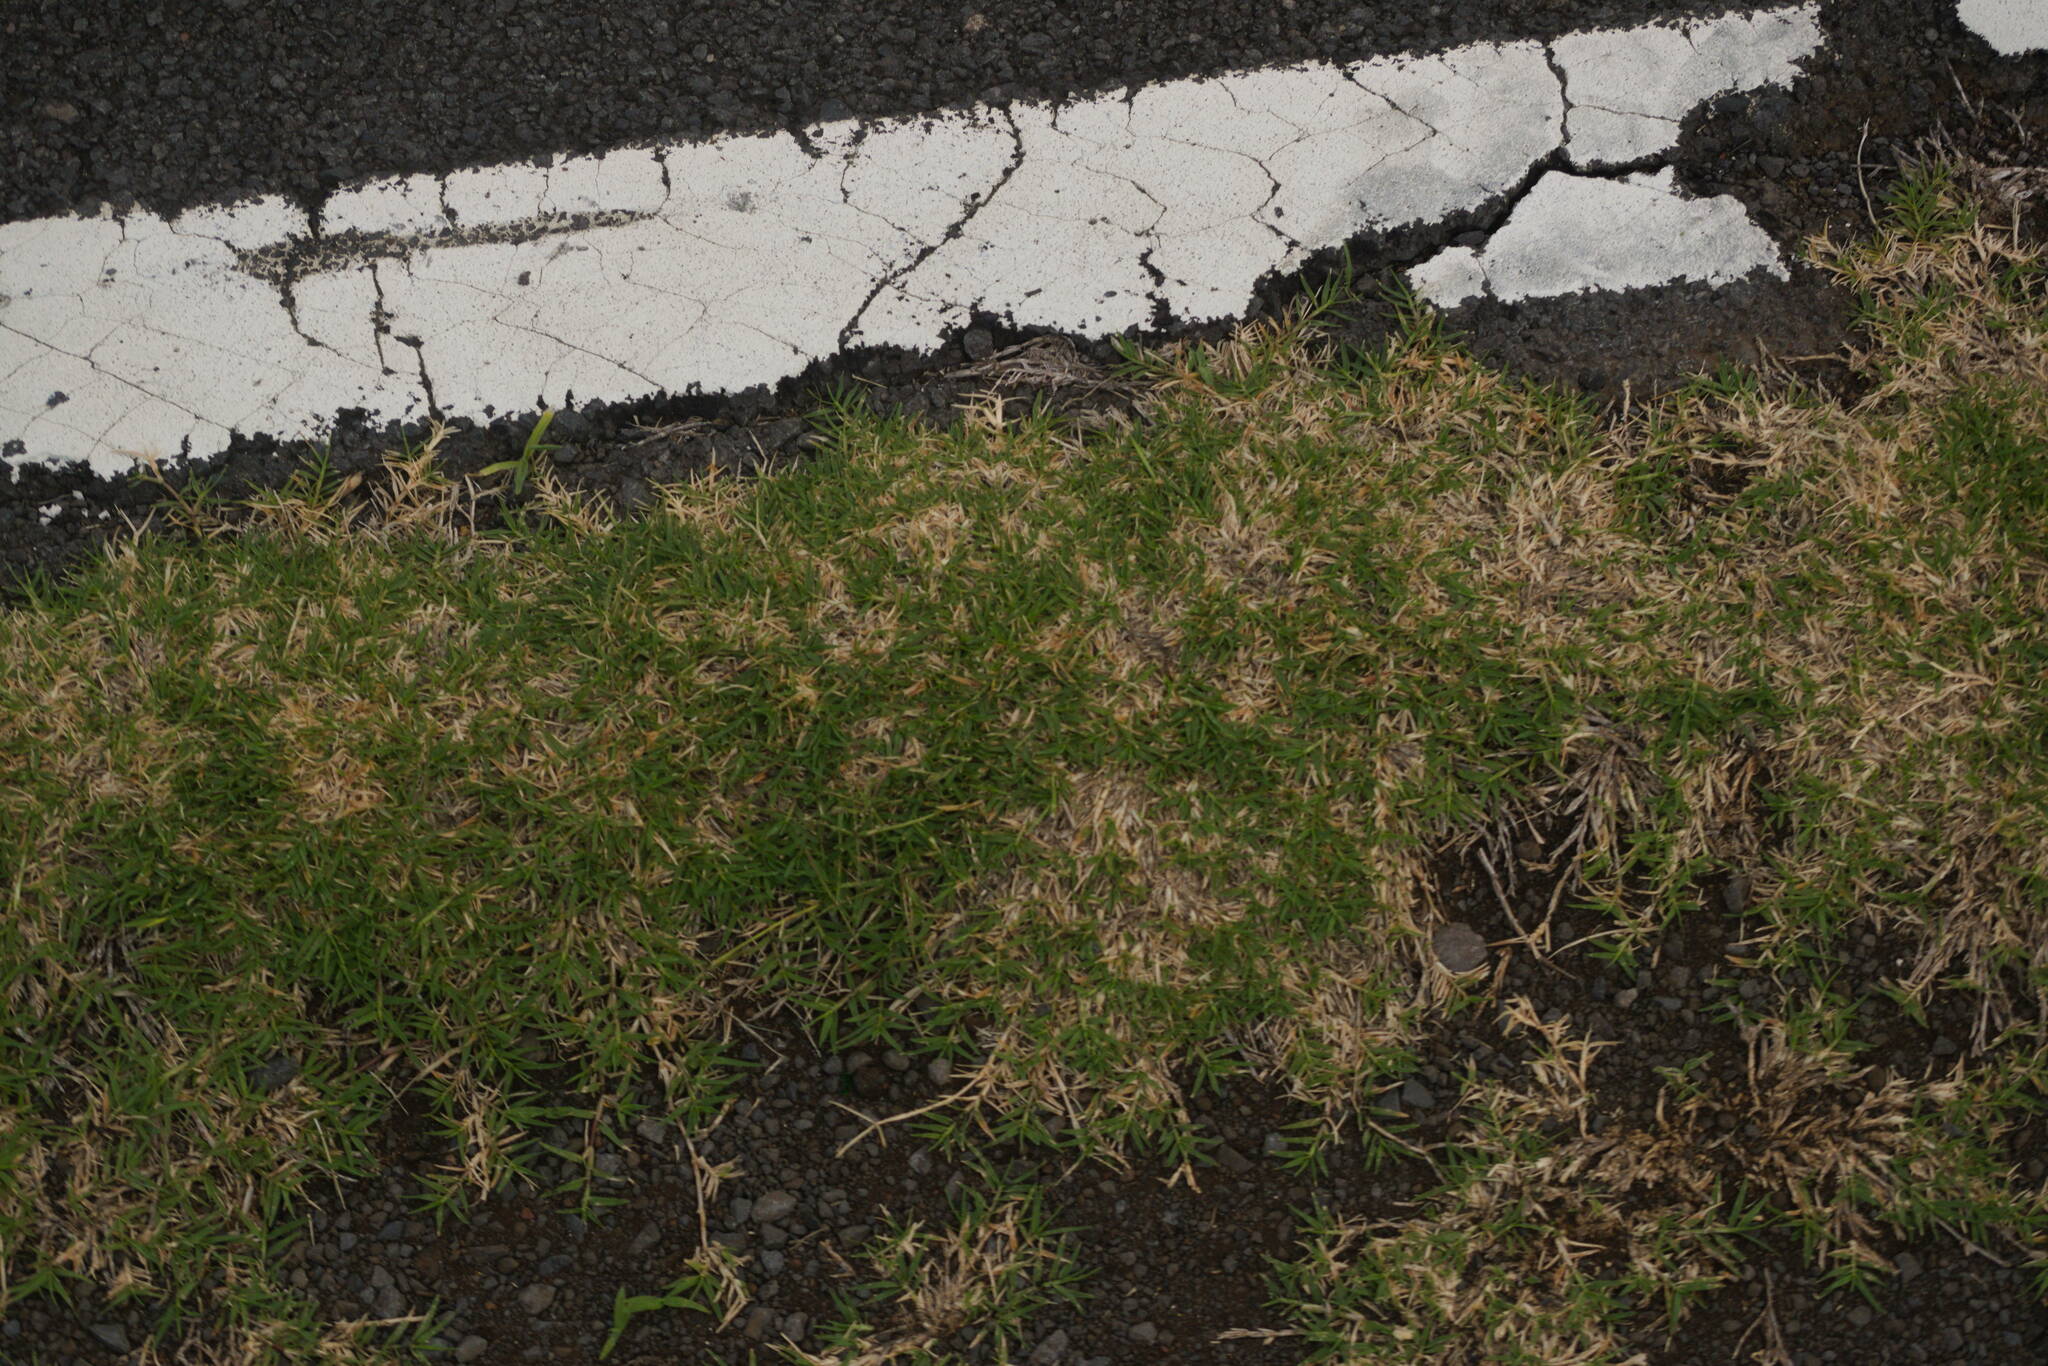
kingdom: Plantae
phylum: Tracheophyta
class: Liliopsida
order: Poales
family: Poaceae
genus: Cynodon
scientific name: Cynodon dactylon
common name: Bermuda grass
